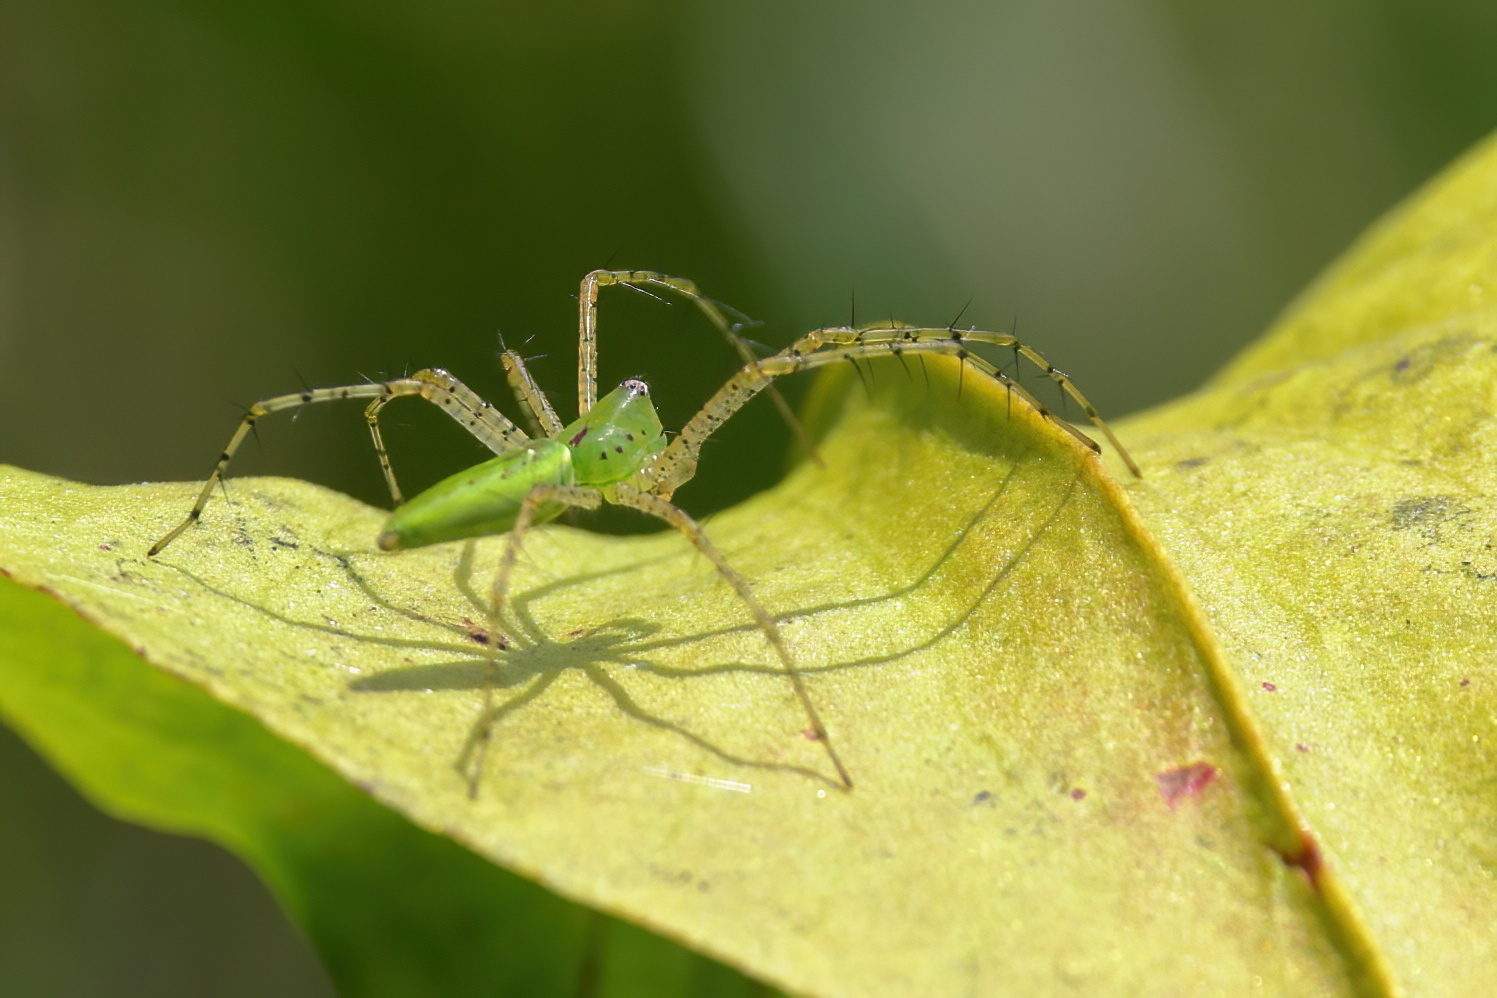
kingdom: Animalia
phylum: Arthropoda
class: Arachnida
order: Araneae
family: Oxyopidae
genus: Peucetia
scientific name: Peucetia viridans
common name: Lynx spiders
